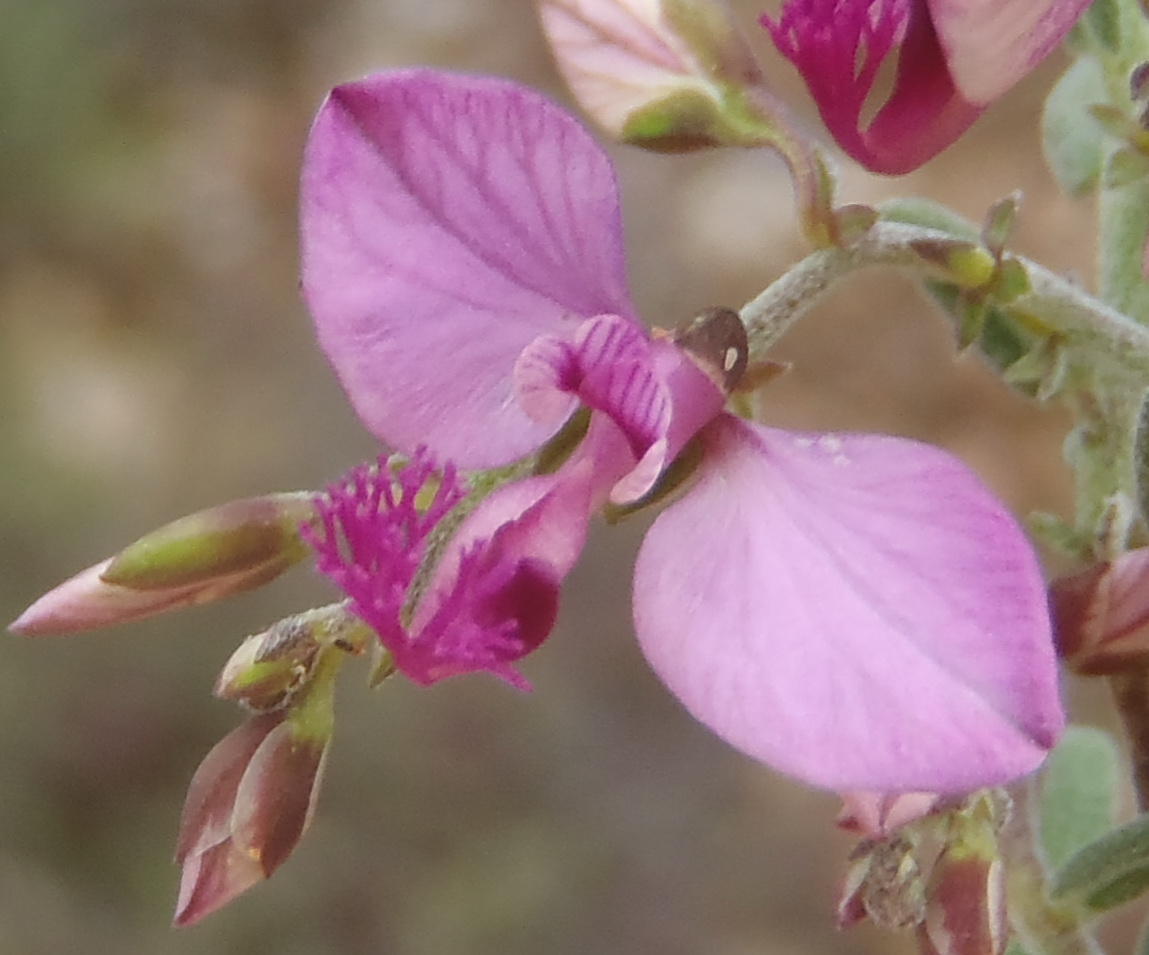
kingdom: Plantae
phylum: Tracheophyta
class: Magnoliopsida
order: Fabales
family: Polygalaceae
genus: Polygala
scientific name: Polygala scabra
